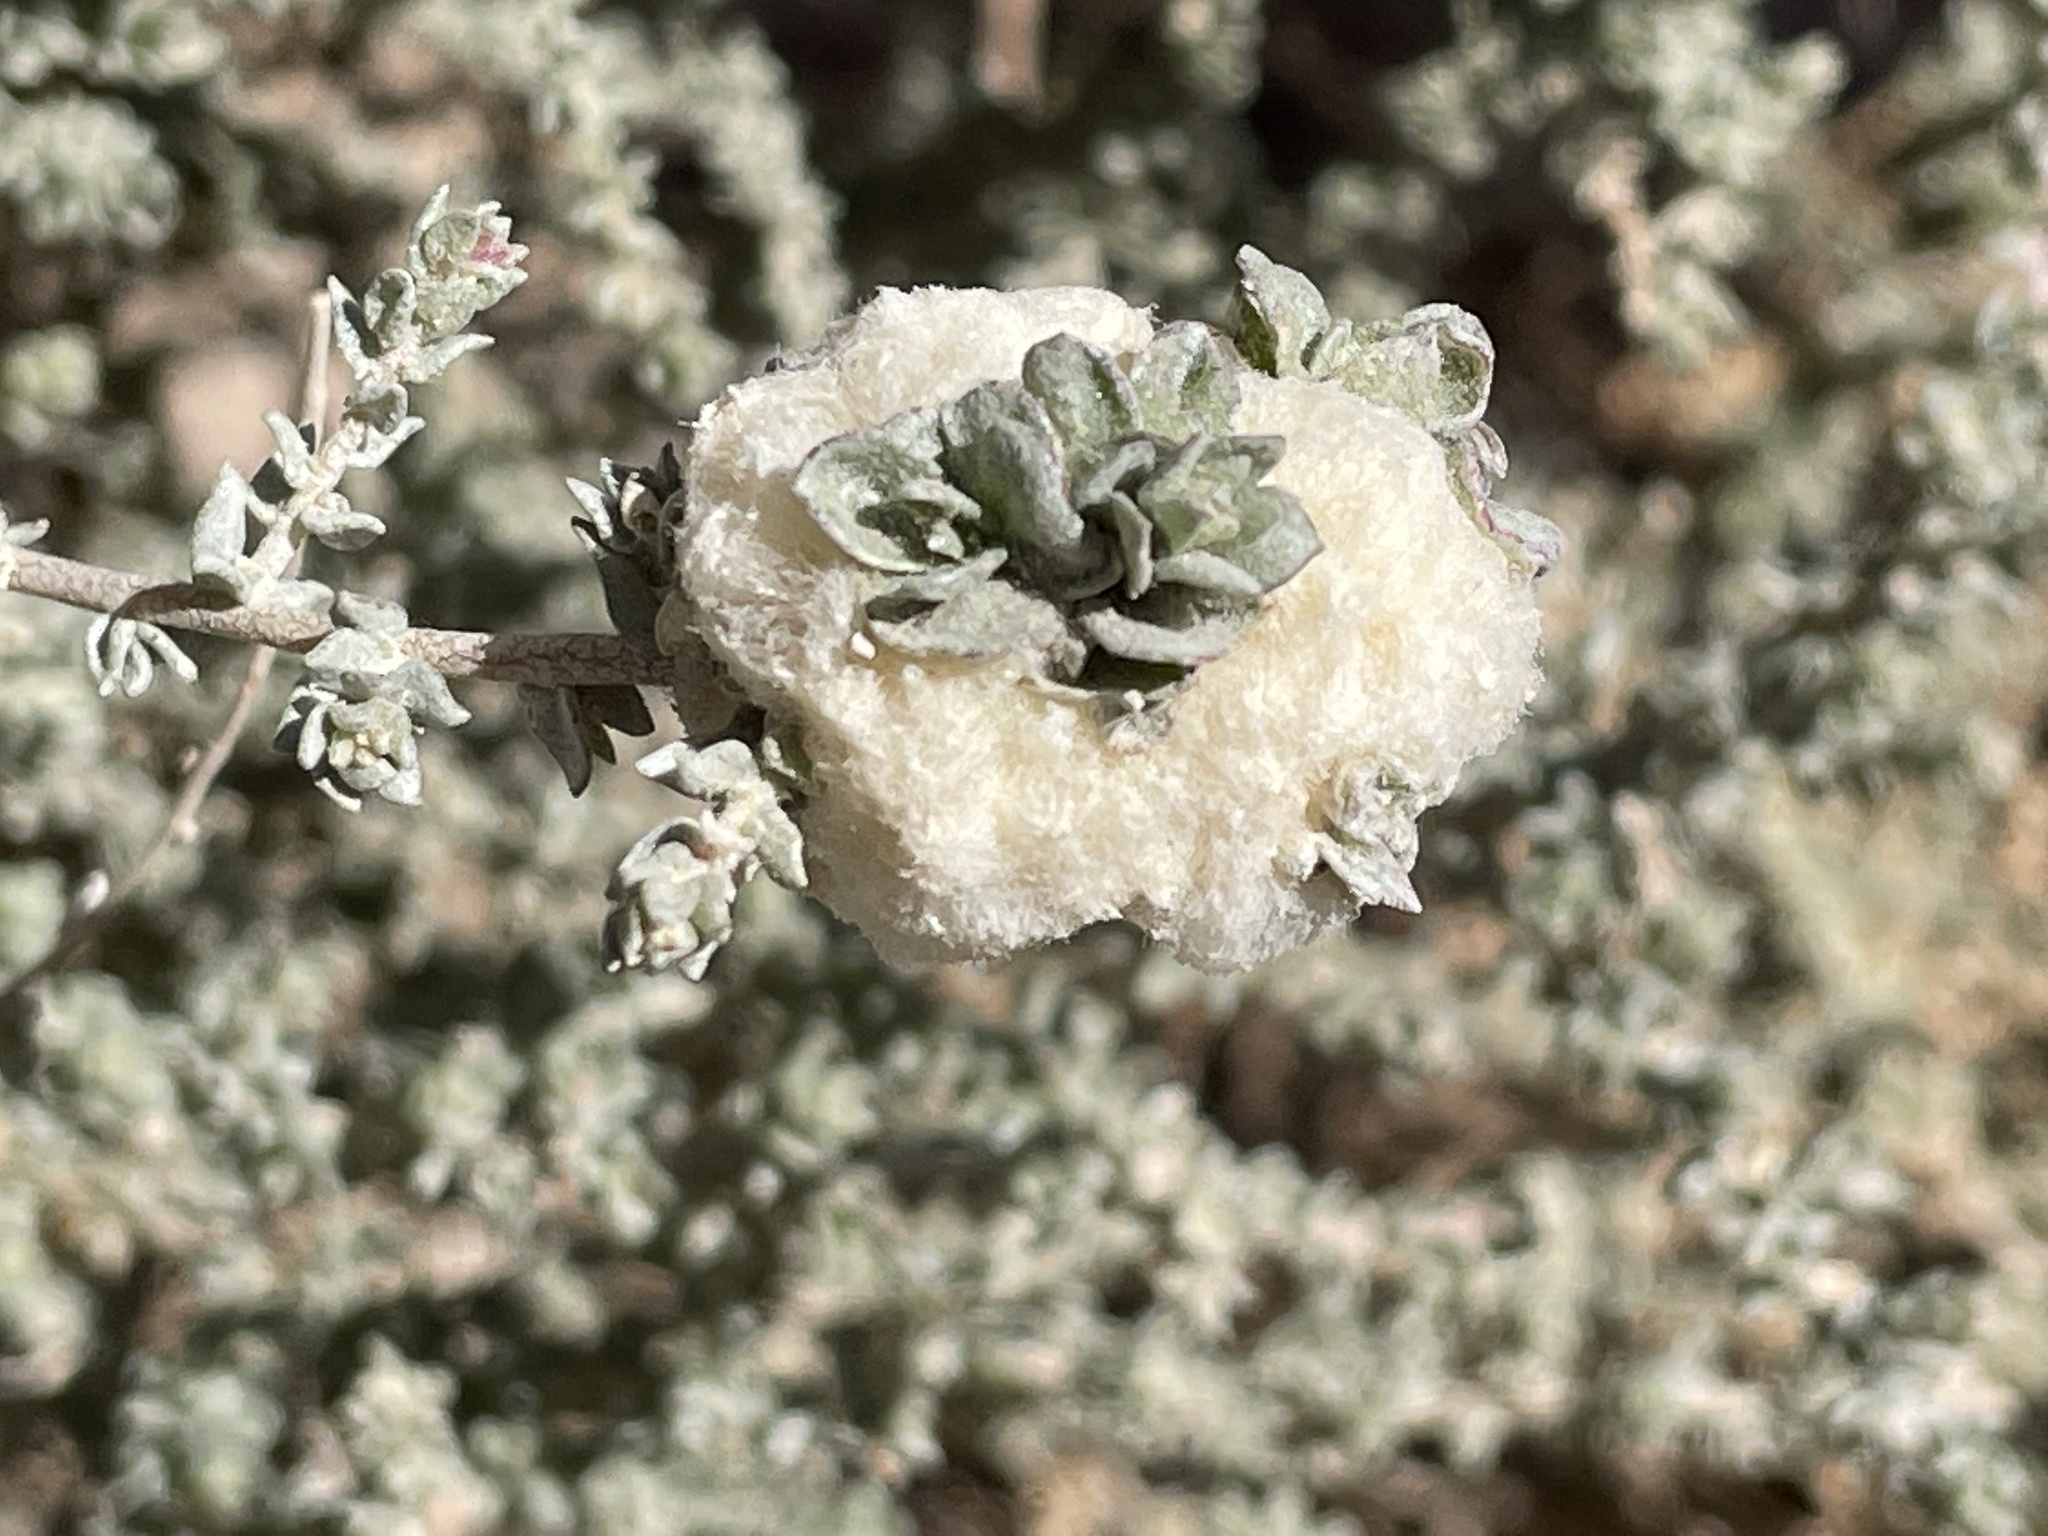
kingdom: Animalia
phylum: Arthropoda
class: Insecta
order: Diptera
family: Cecidomyiidae
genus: Asphondylia
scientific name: Asphondylia floccosa
